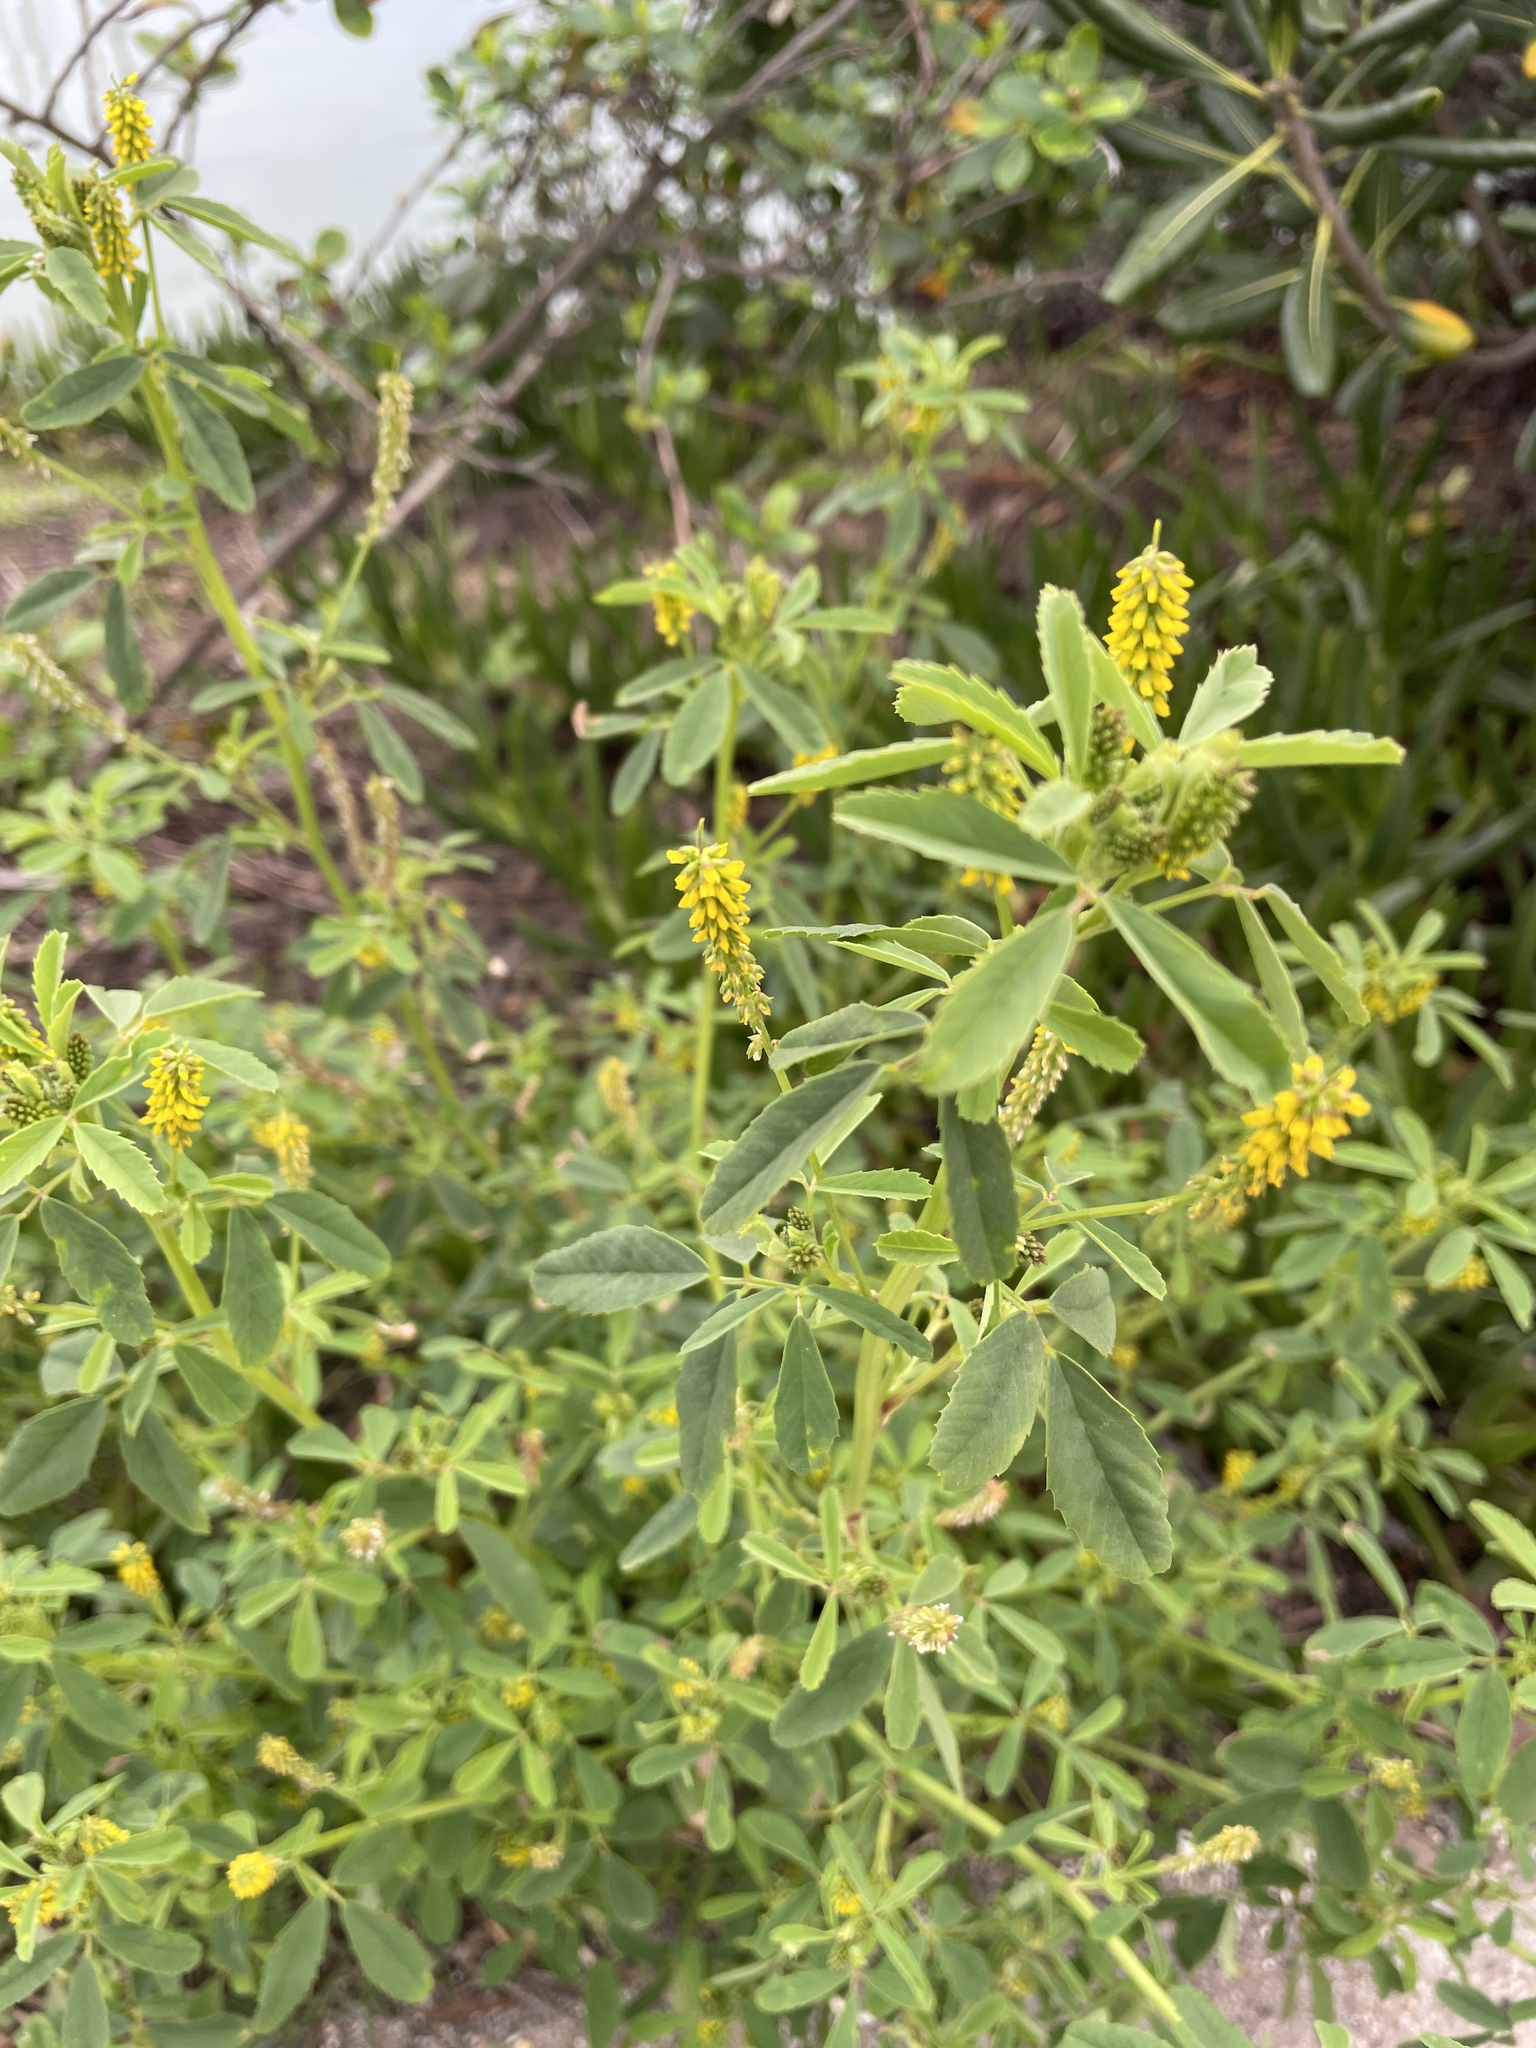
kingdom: Plantae
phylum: Tracheophyta
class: Magnoliopsida
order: Fabales
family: Fabaceae
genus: Melilotus
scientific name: Melilotus indicus
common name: Small melilot
